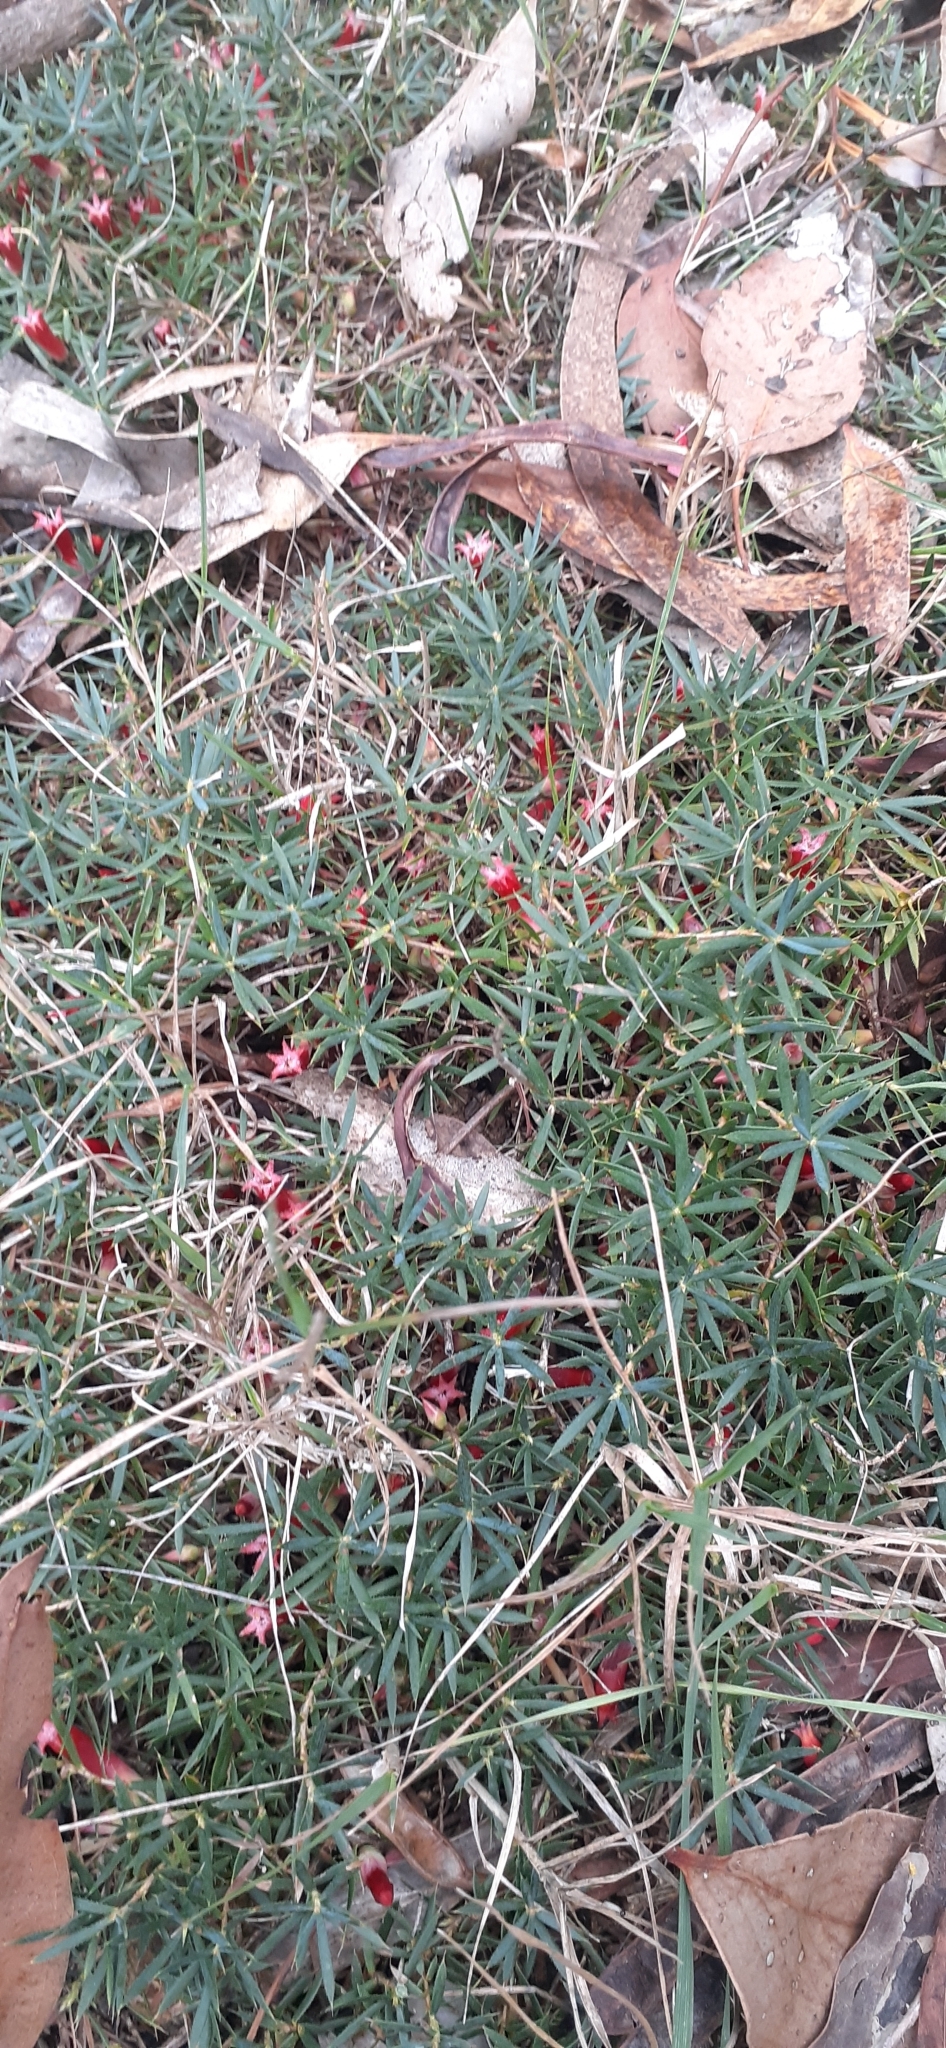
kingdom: Plantae
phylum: Tracheophyta
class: Magnoliopsida
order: Ericales
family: Ericaceae
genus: Styphelia
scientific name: Styphelia humifusa
